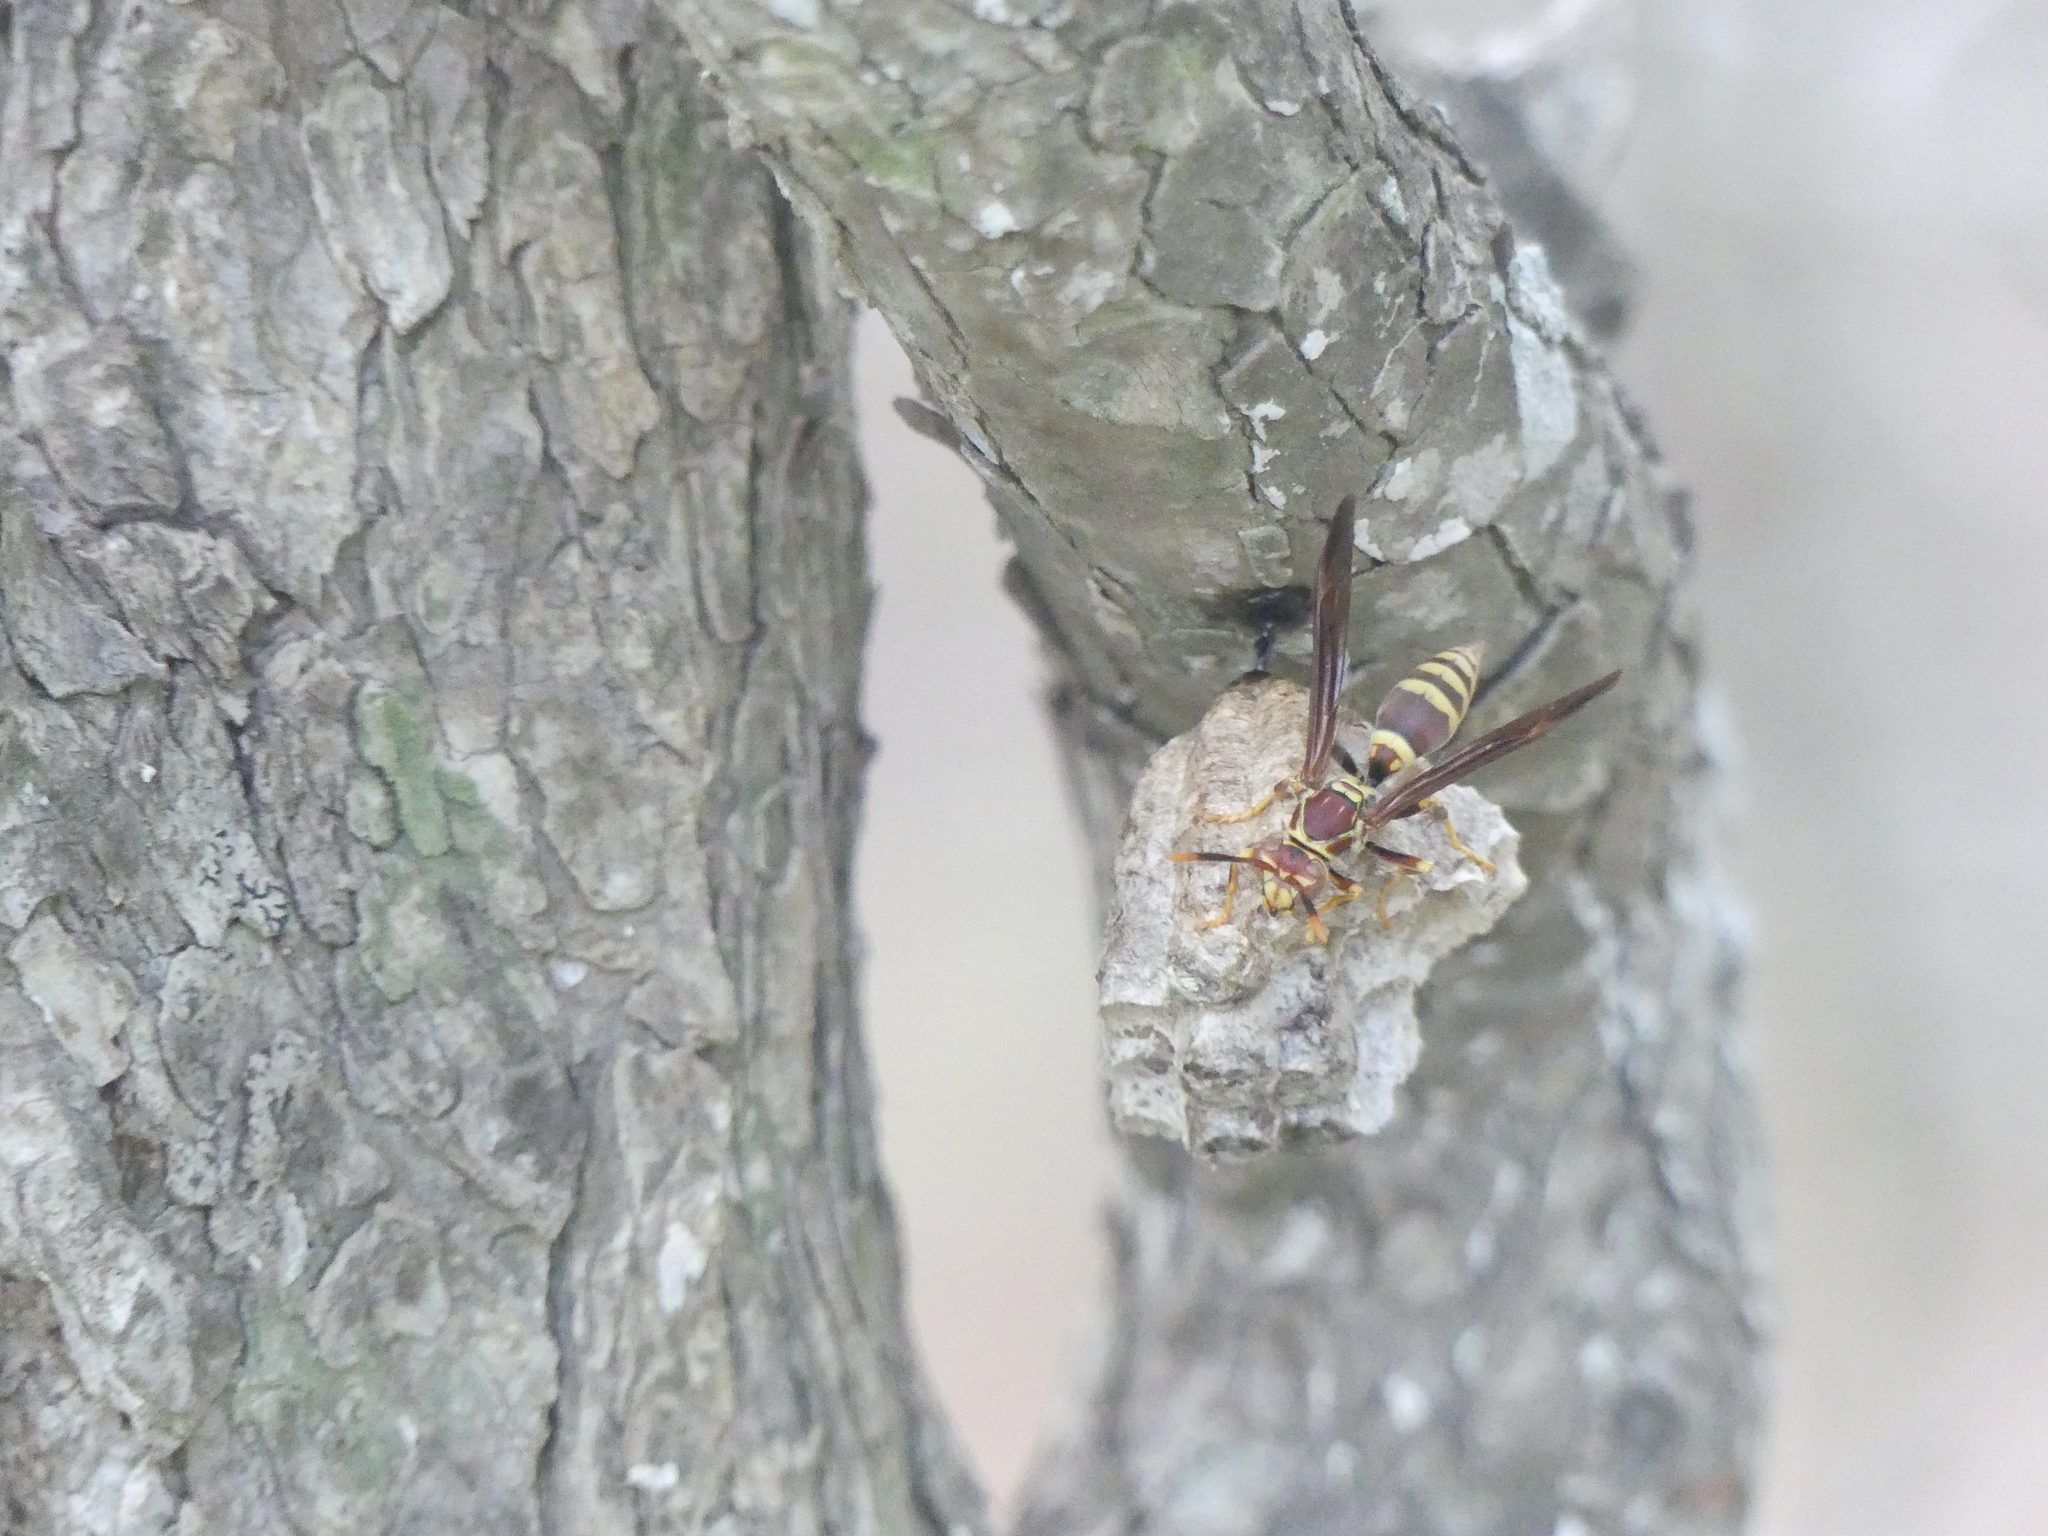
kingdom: Animalia
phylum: Arthropoda
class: Insecta
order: Hymenoptera
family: Eumenidae
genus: Polistes
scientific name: Polistes exclamans
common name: Paper wasp
